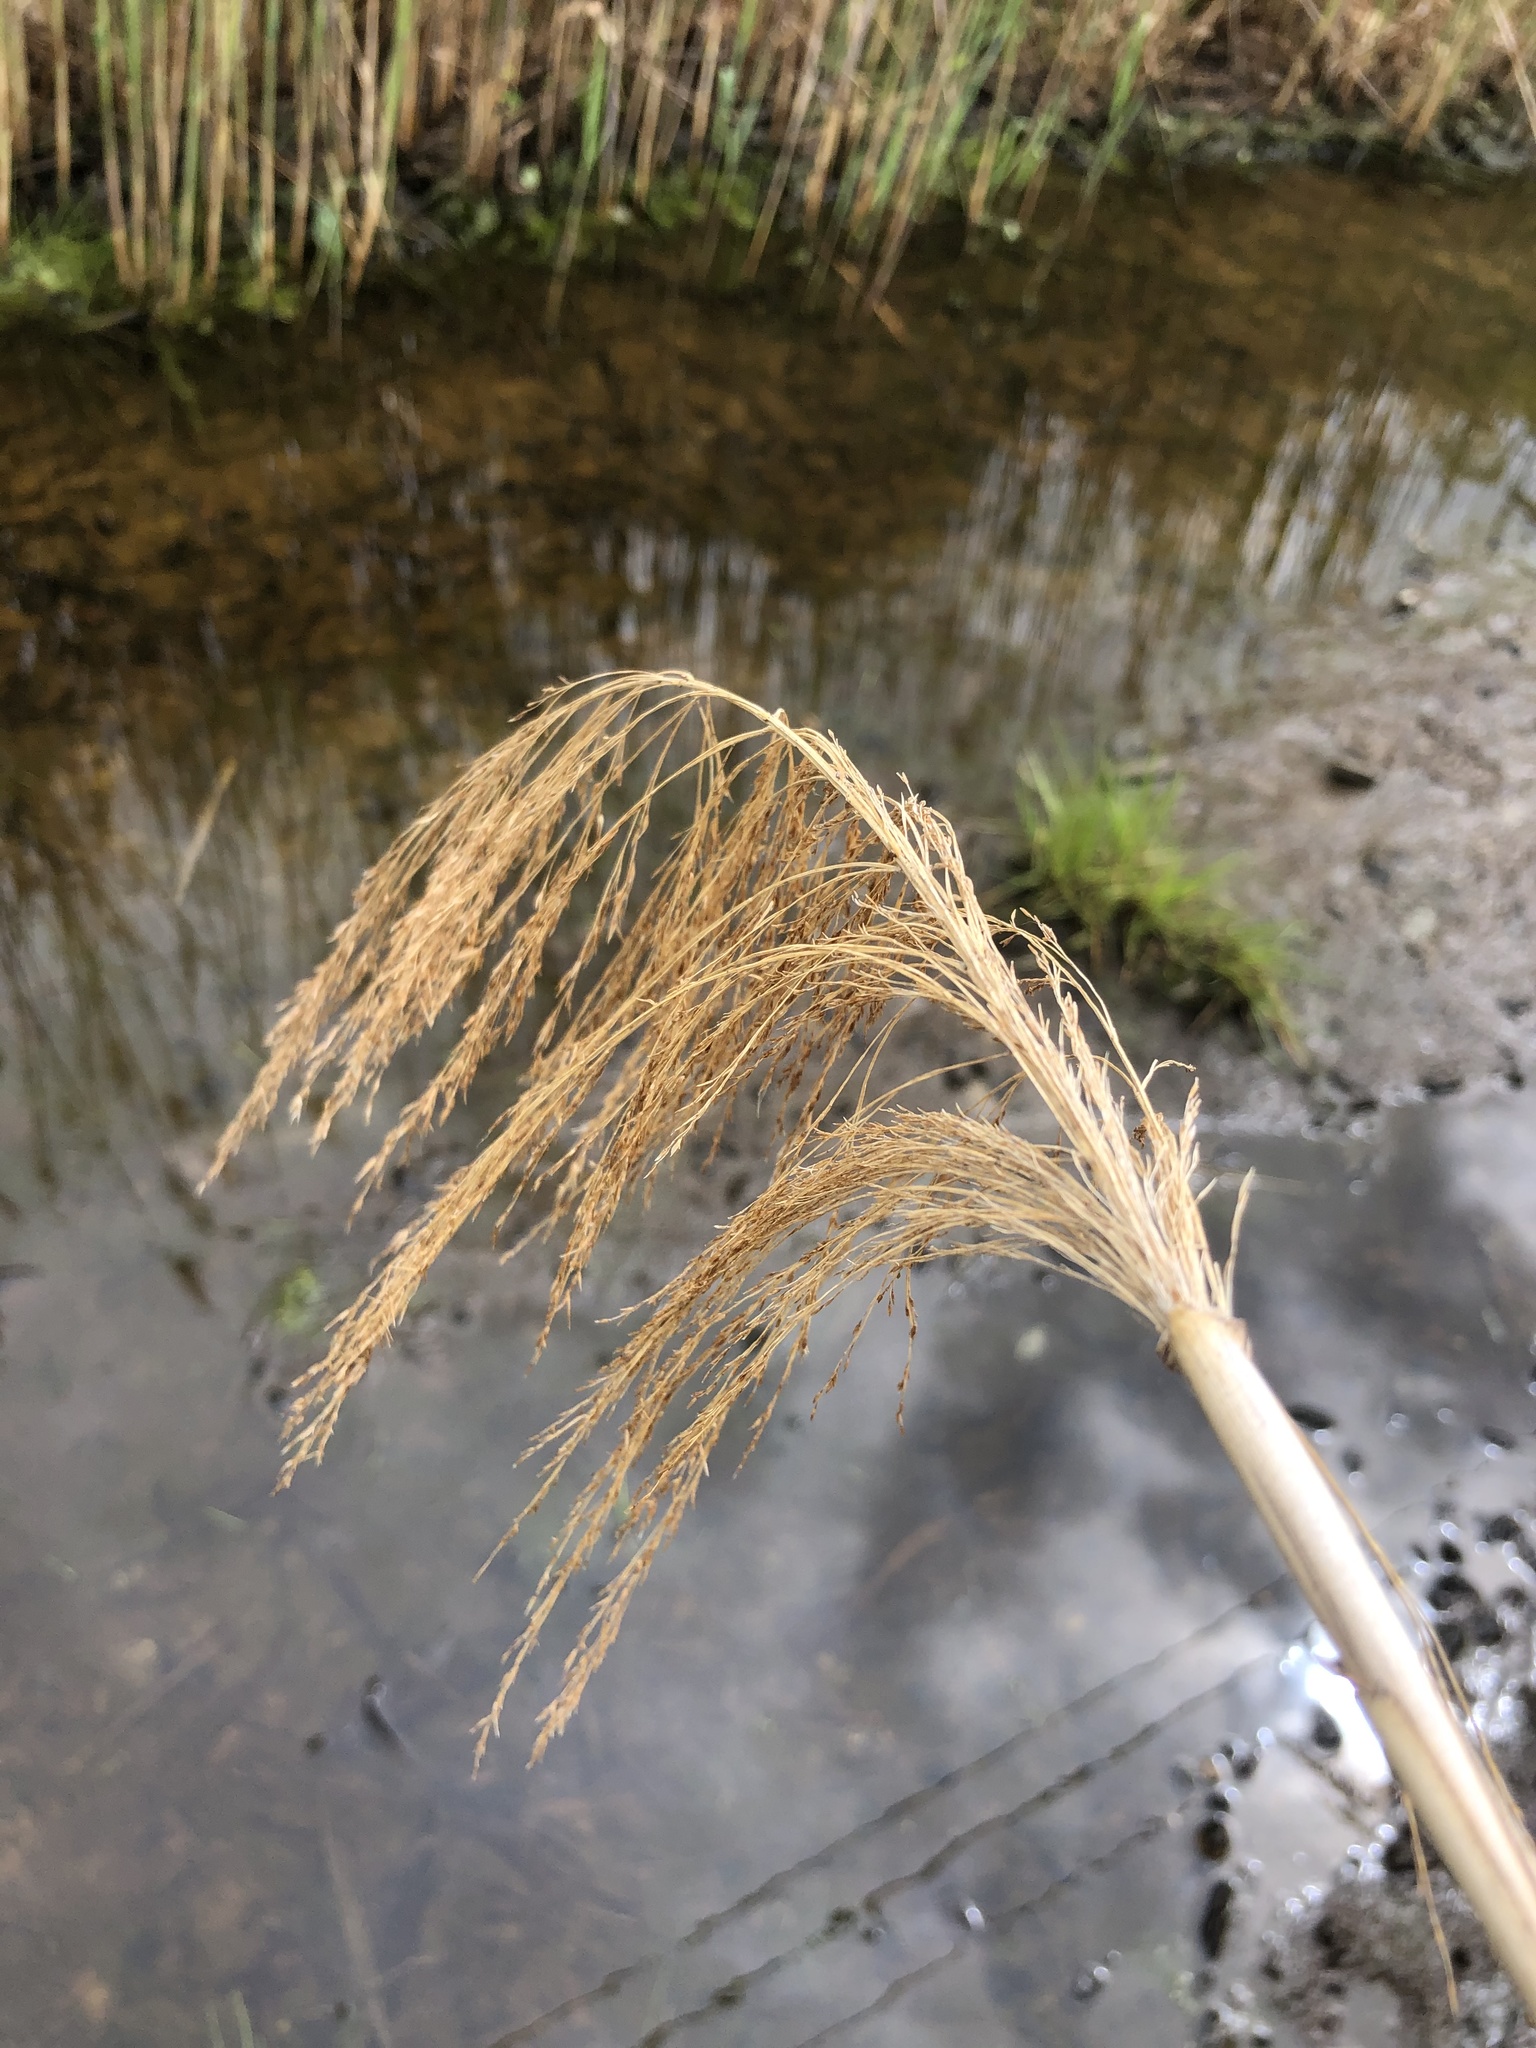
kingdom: Plantae
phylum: Tracheophyta
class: Liliopsida
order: Poales
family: Poaceae
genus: Phragmites
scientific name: Phragmites australis
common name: Common reed
